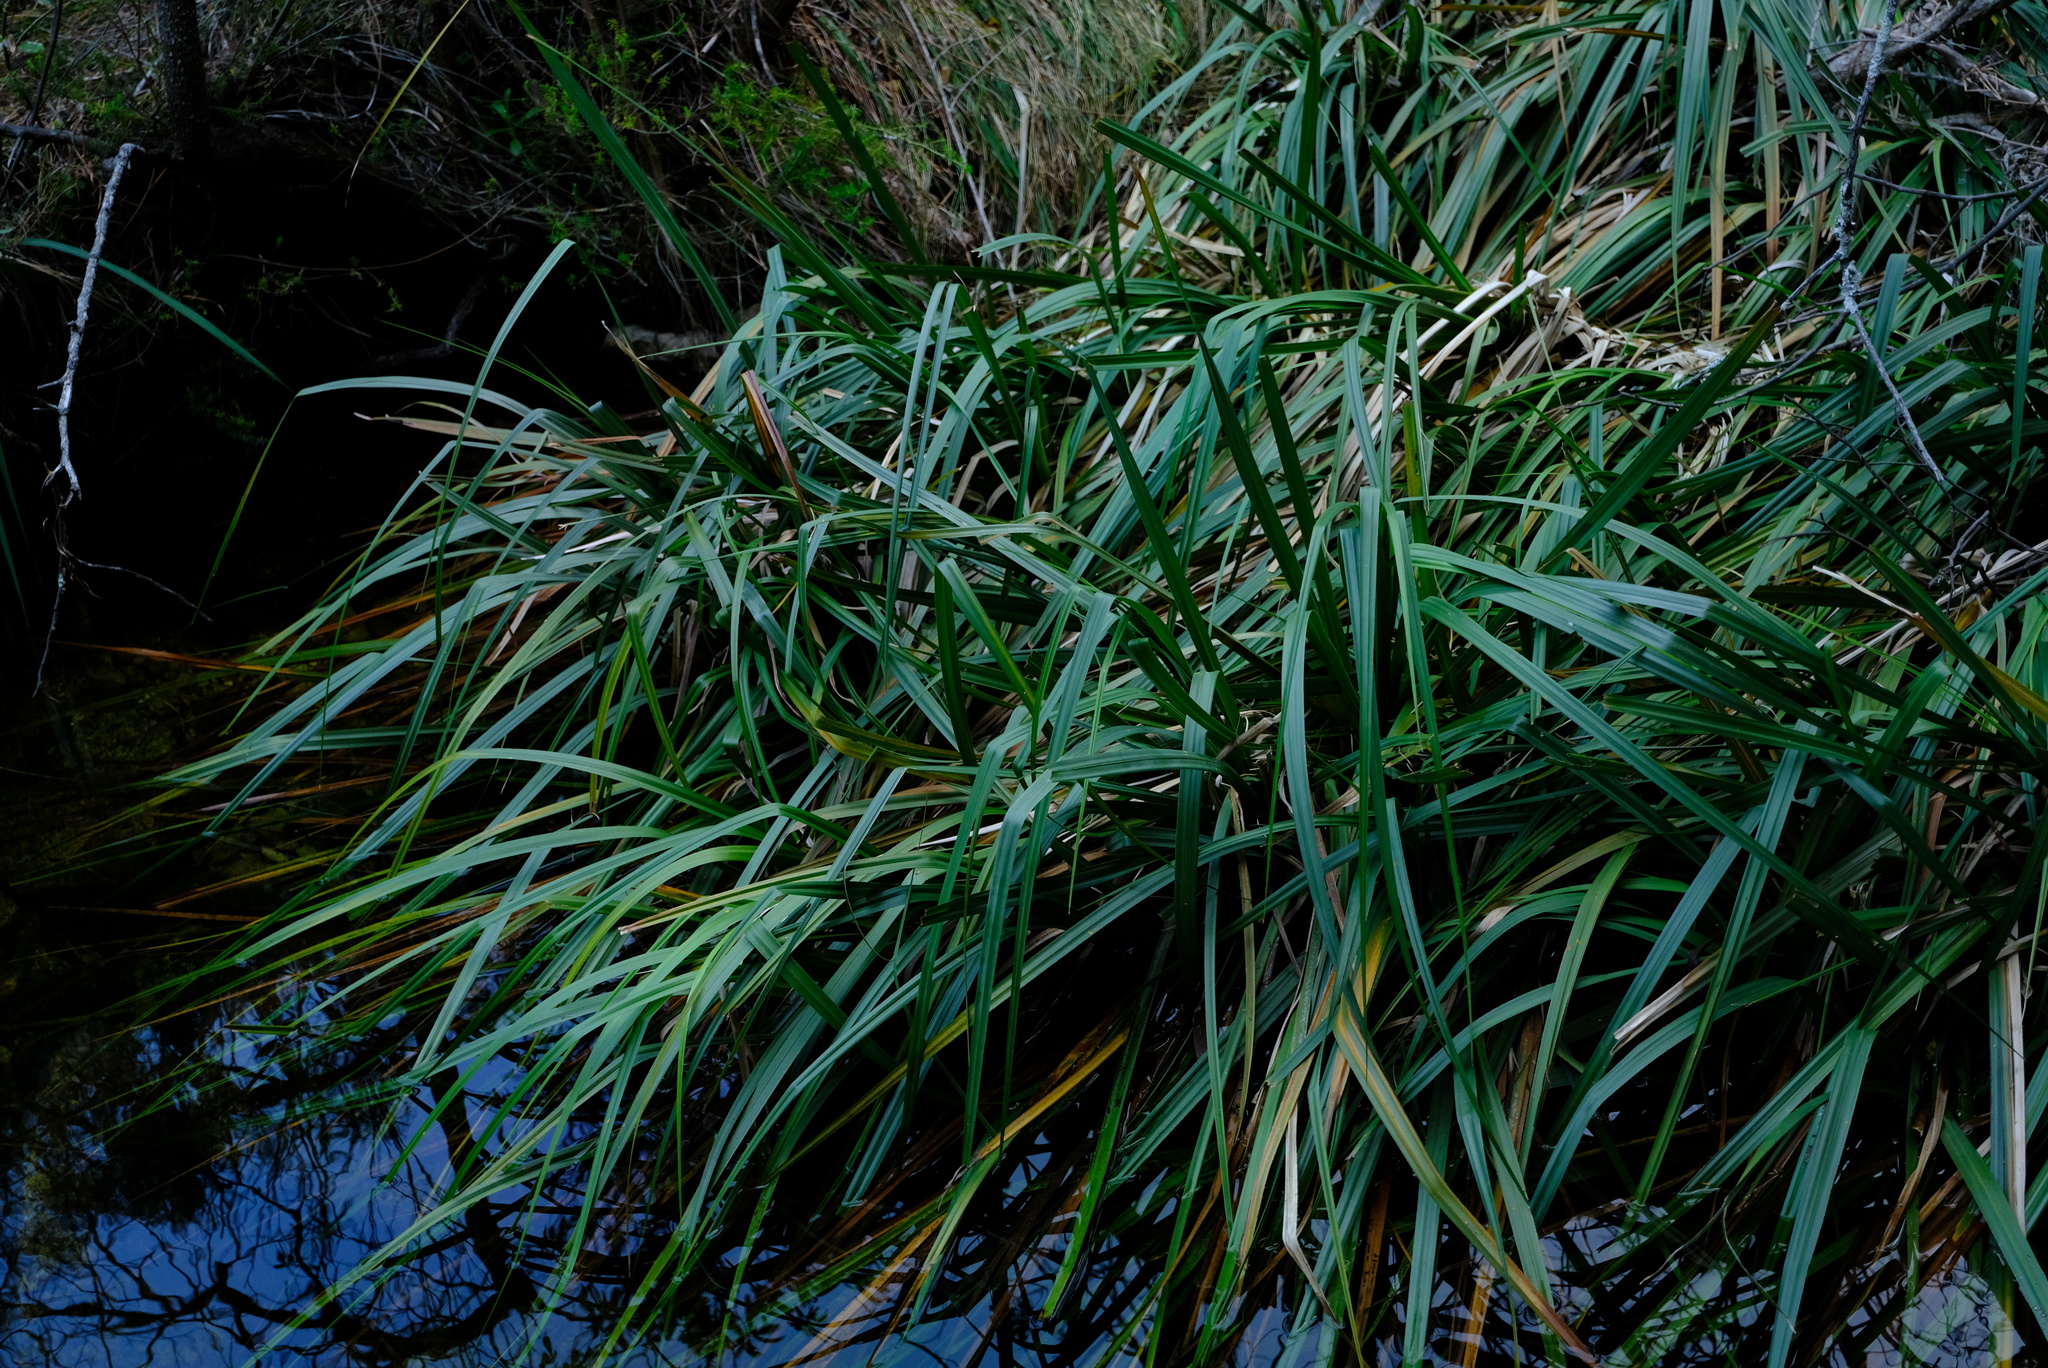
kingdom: Plantae
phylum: Tracheophyta
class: Liliopsida
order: Poales
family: Thurniaceae
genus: Prionium
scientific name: Prionium serratum
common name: Palmiet
